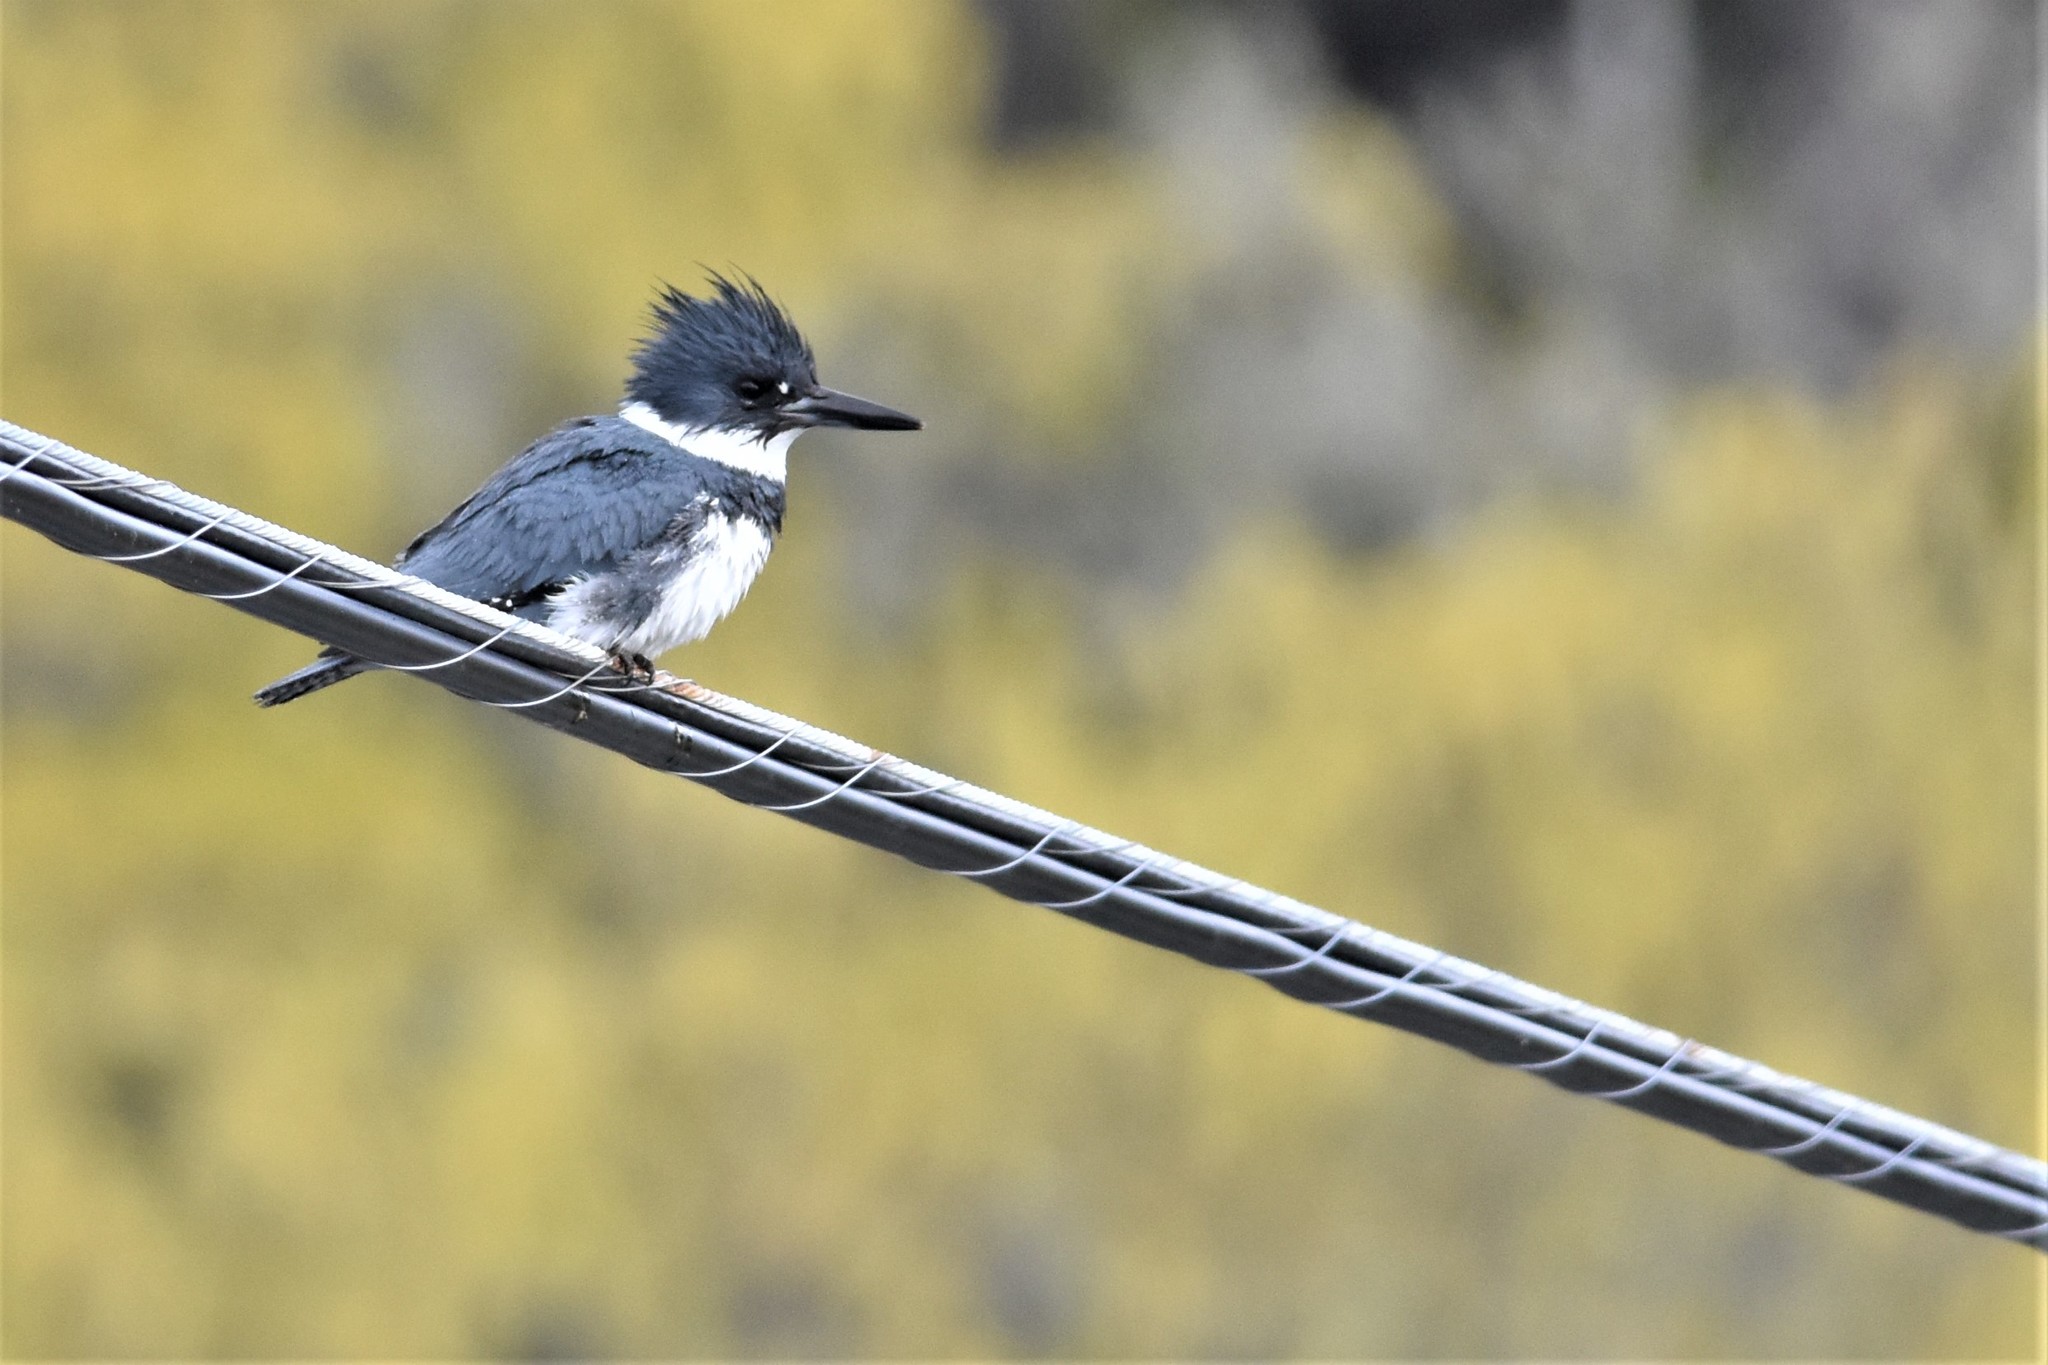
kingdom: Animalia
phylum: Chordata
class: Aves
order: Coraciiformes
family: Alcedinidae
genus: Megaceryle
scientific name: Megaceryle alcyon
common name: Belted kingfisher
